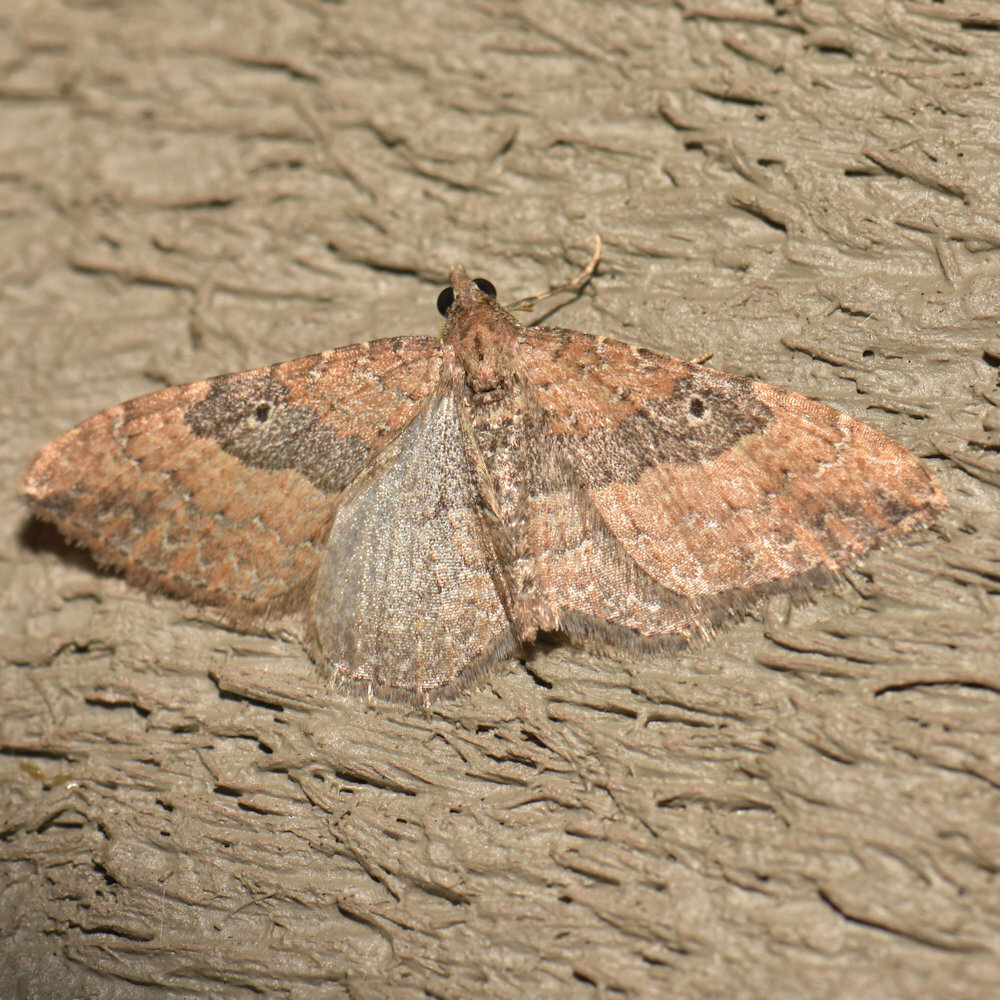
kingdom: Animalia
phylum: Arthropoda
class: Insecta
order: Lepidoptera
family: Geometridae
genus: Orthonama
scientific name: Orthonama obstipata
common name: The gem
